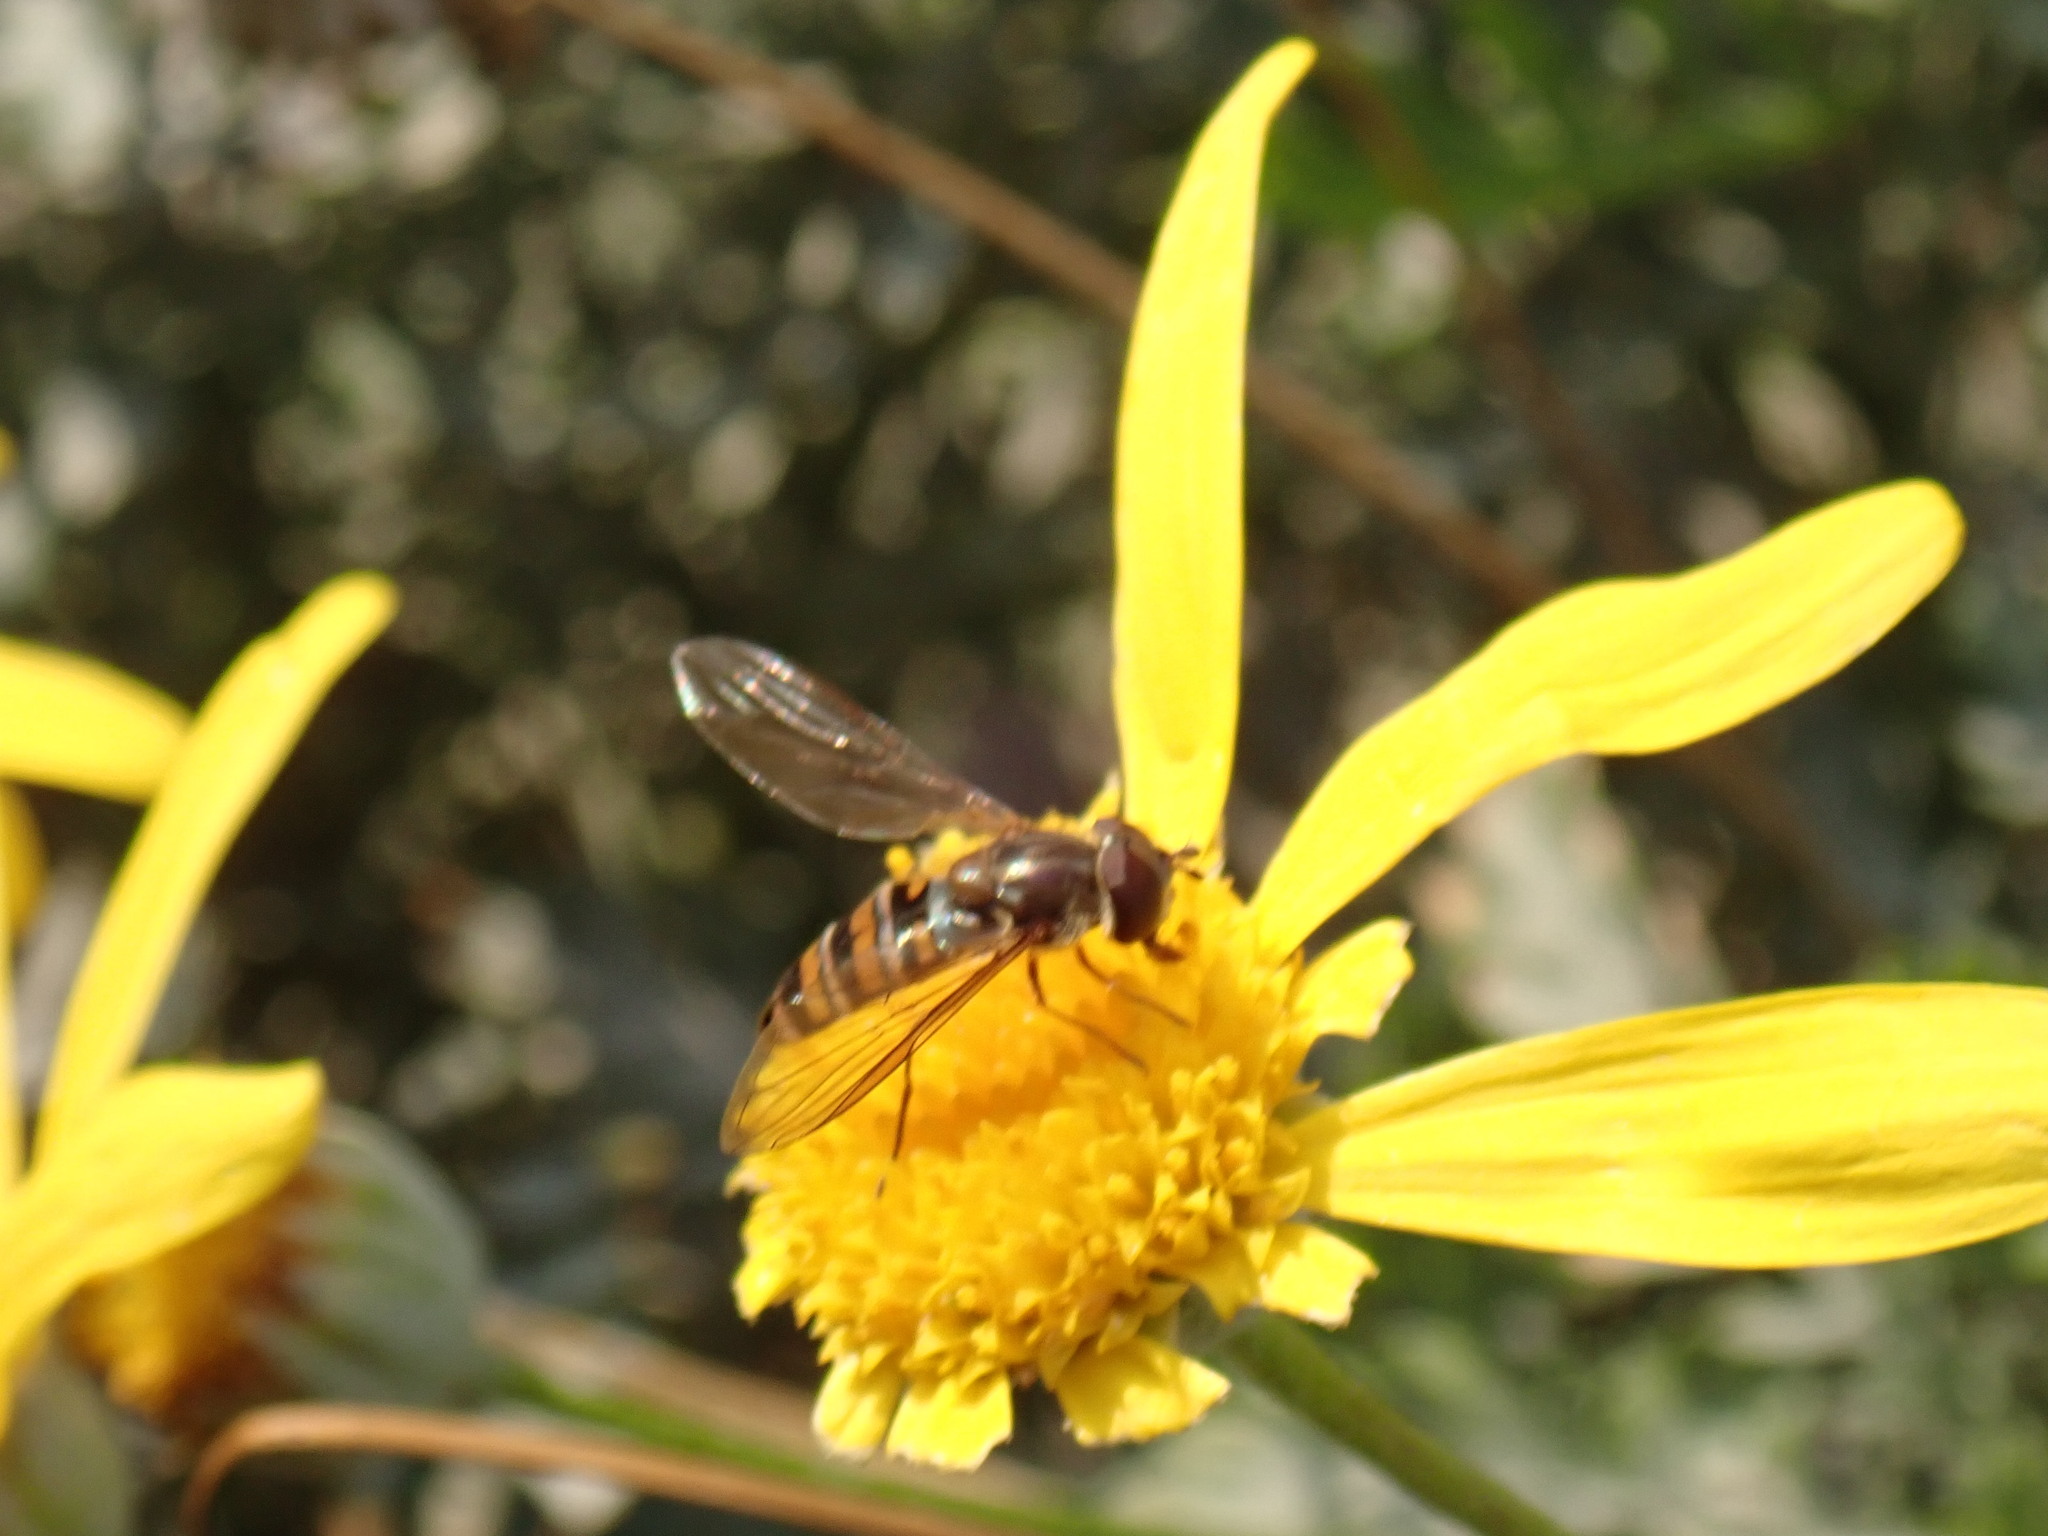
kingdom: Animalia
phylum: Arthropoda
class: Insecta
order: Diptera
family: Syrphidae
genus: Episyrphus
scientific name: Episyrphus balteatus
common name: Marmalade hoverfly
